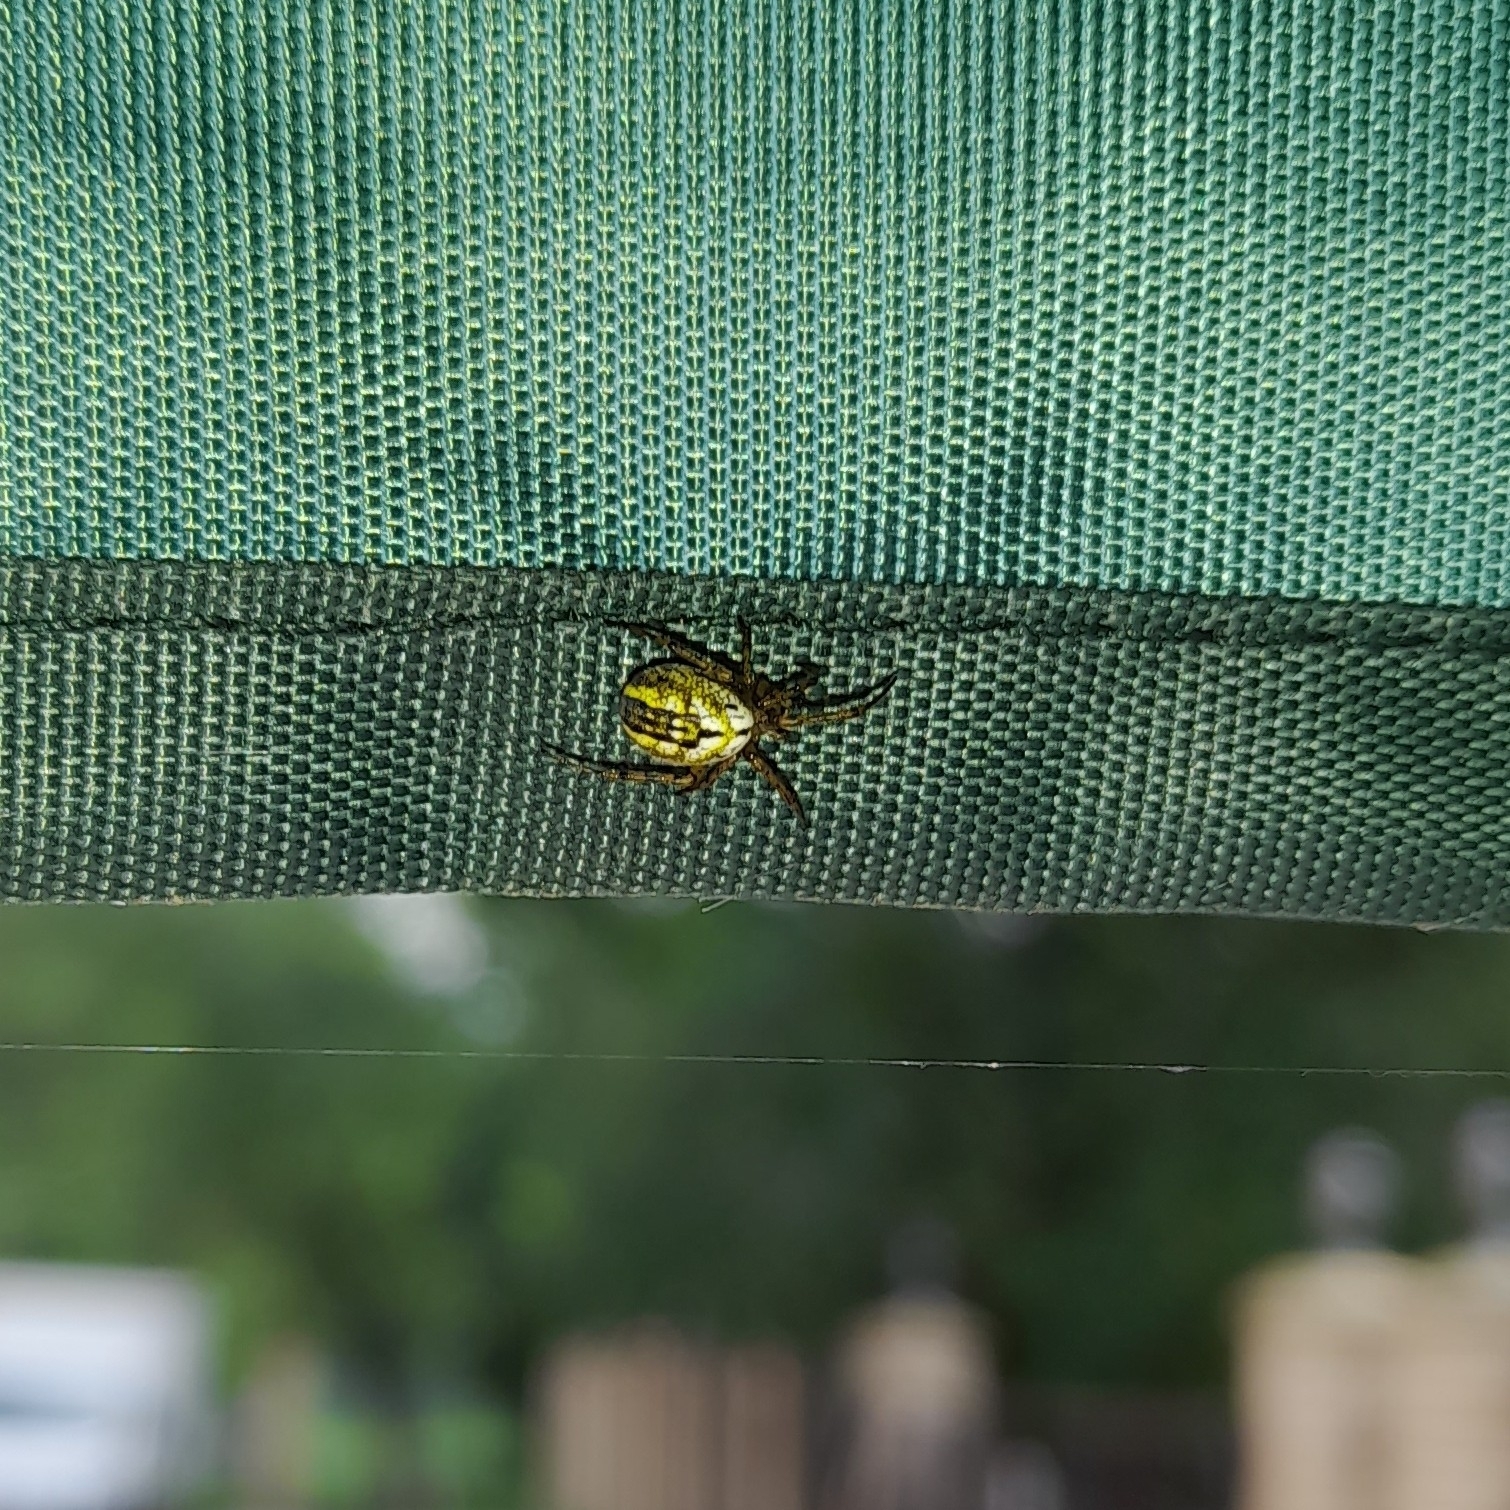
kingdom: Animalia
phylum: Arthropoda
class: Arachnida
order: Araneae
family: Araneidae
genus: Mangora
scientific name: Mangora acalypha
